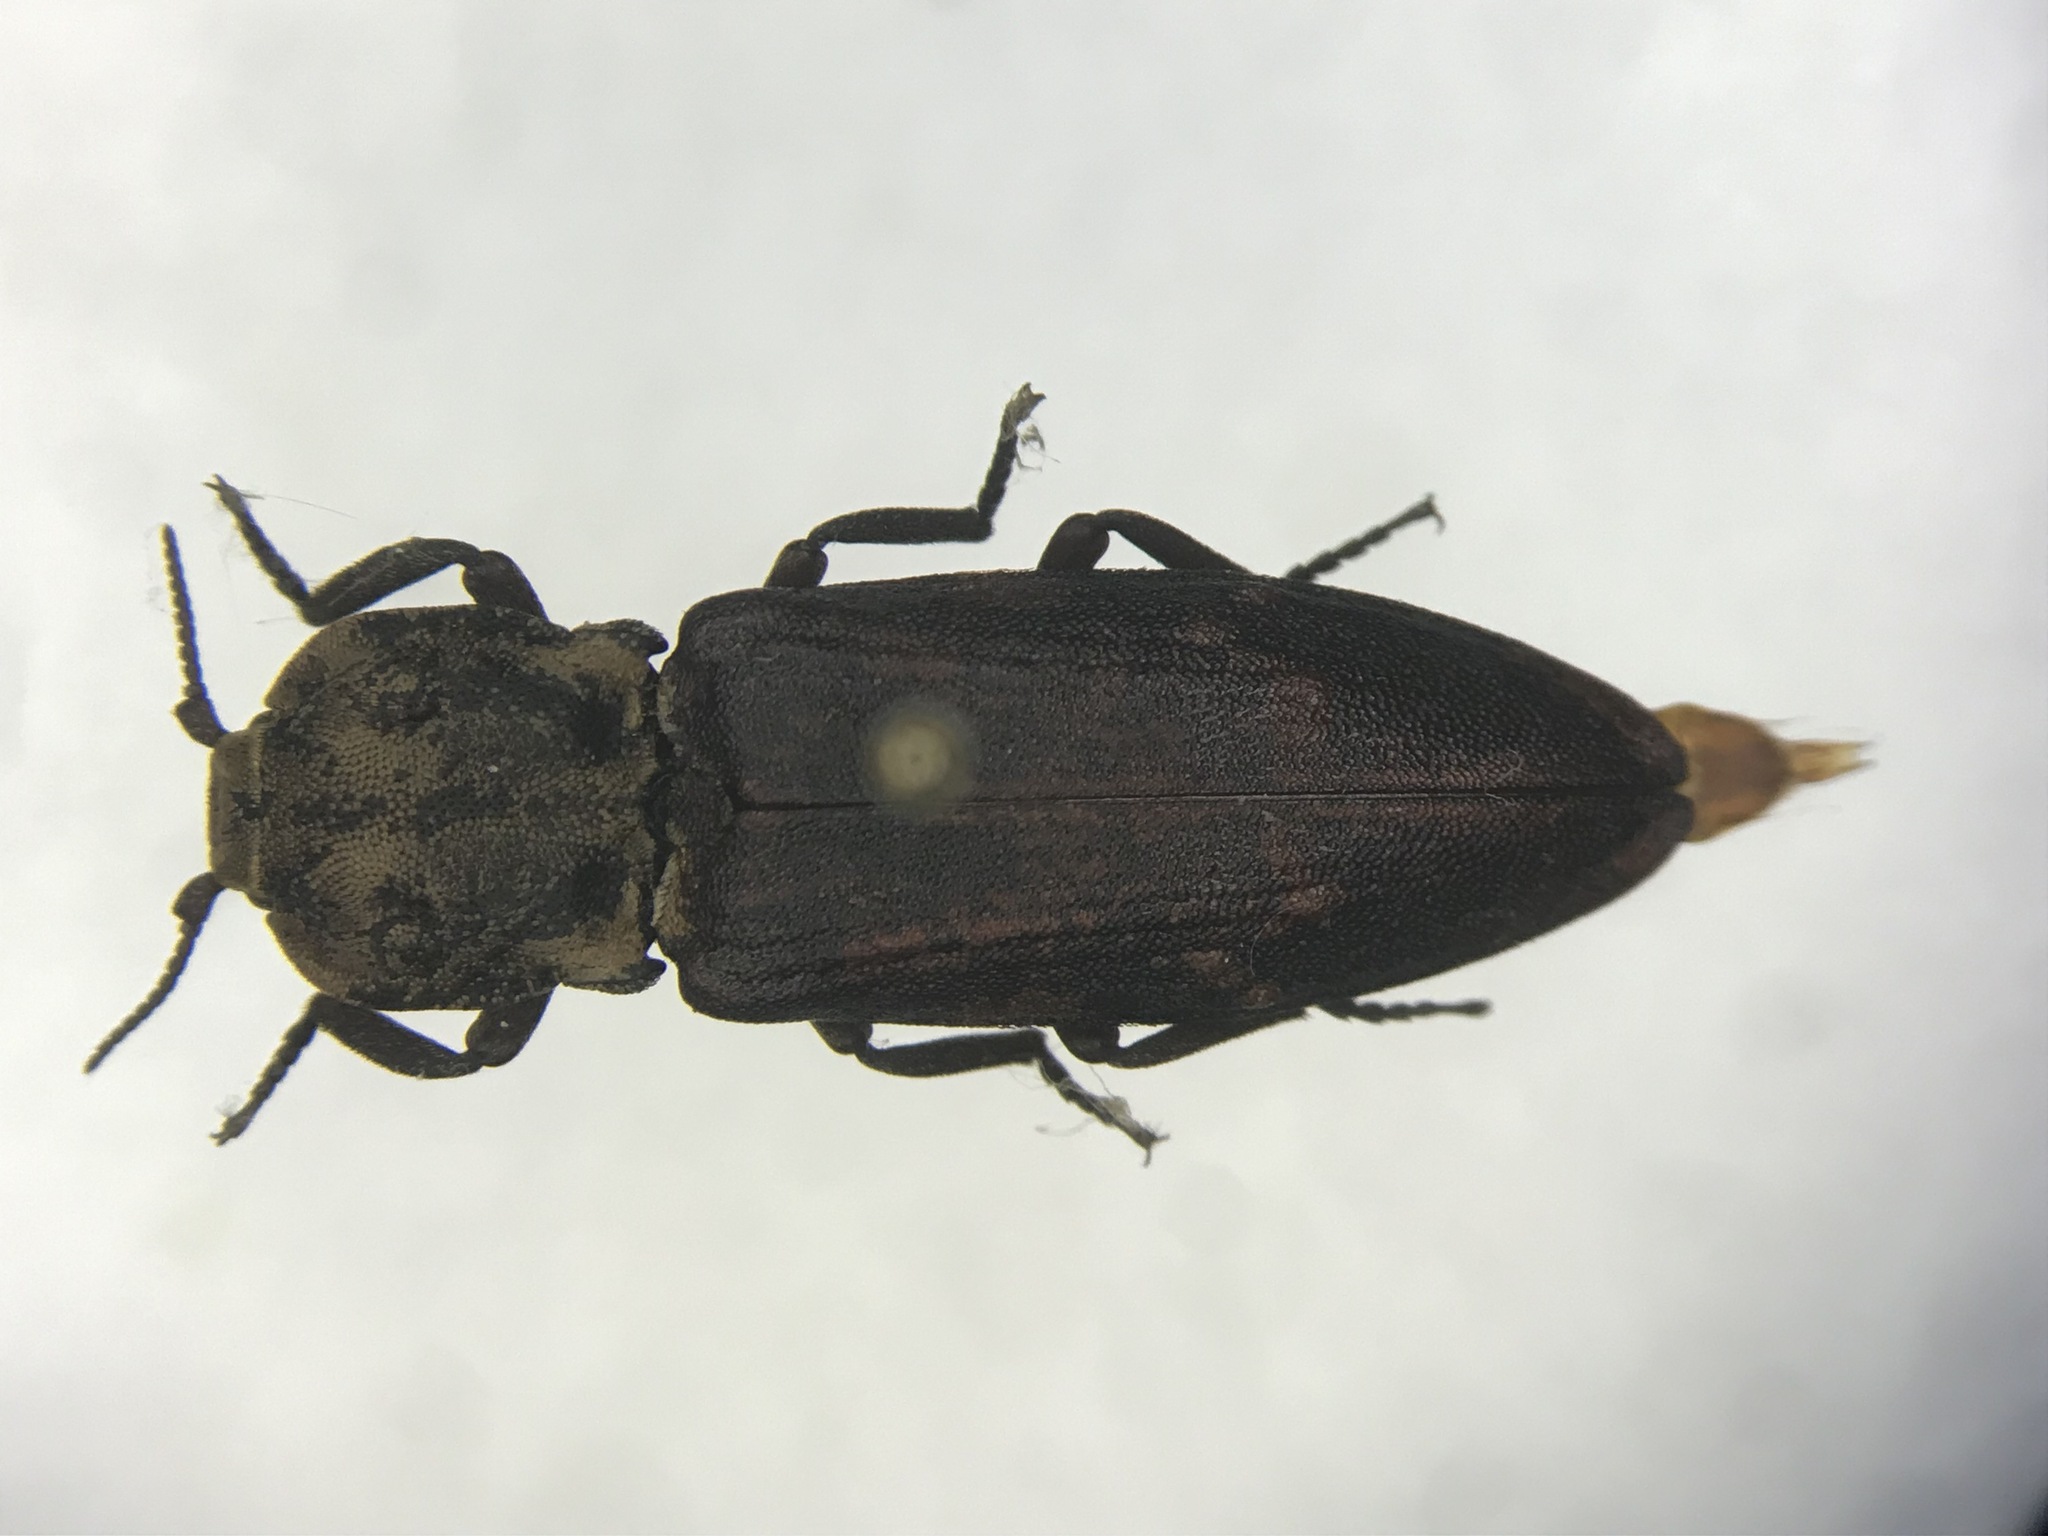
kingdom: Animalia
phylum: Arthropoda
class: Insecta
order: Coleoptera
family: Elateridae
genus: Danosoma
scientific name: Danosoma brevicorne
